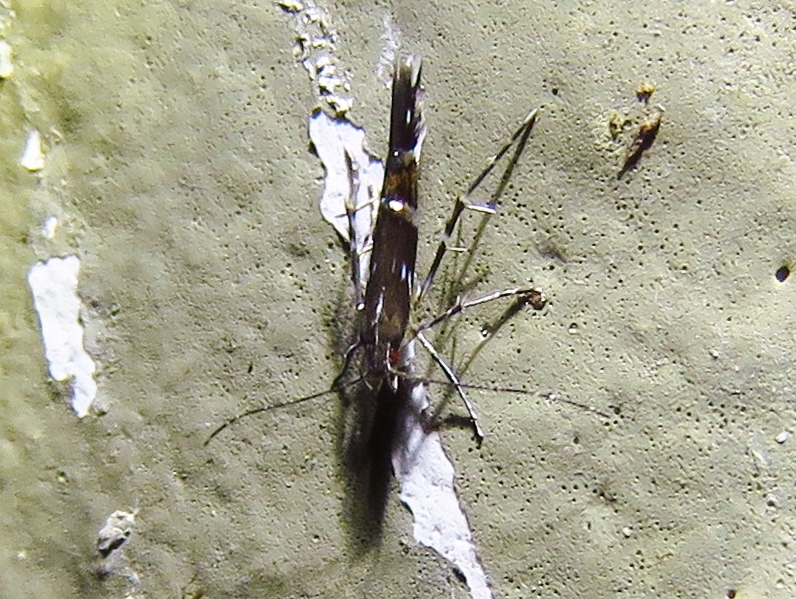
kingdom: Animalia
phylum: Arthropoda
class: Insecta
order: Lepidoptera
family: Cosmopterigidae
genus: Cosmopterix
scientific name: Cosmopterix pulchrimella
